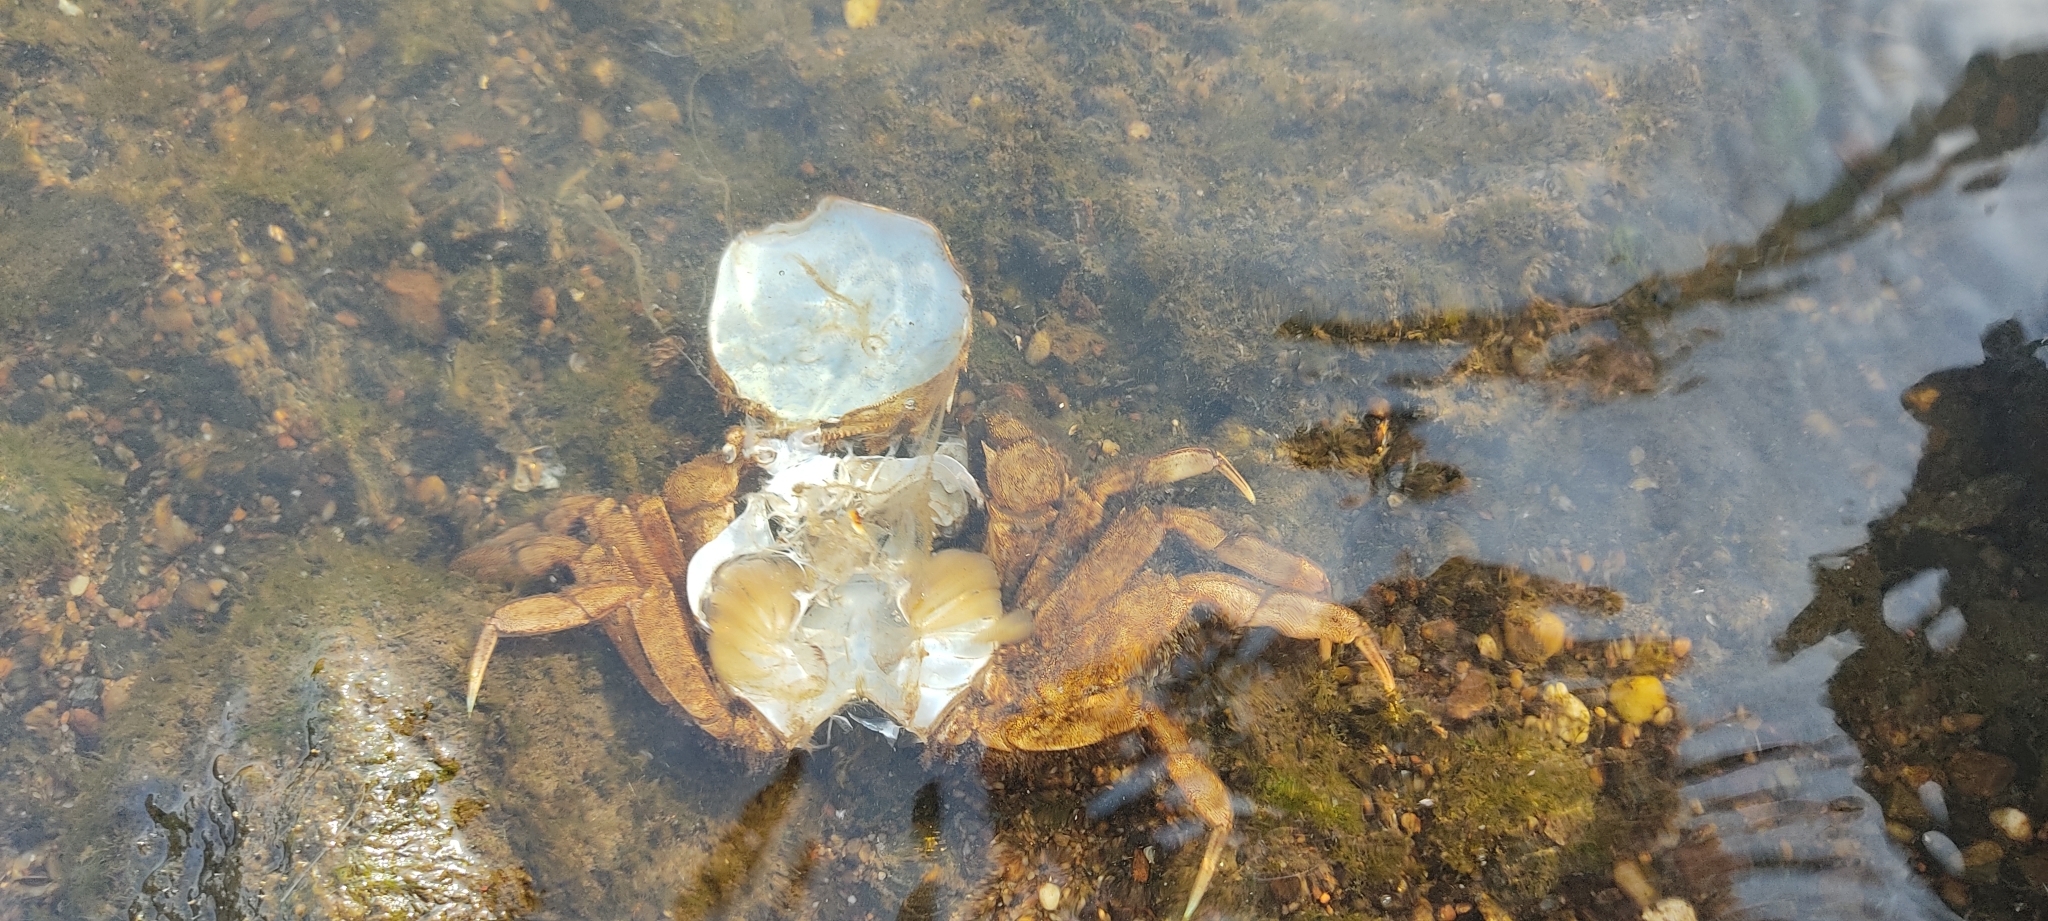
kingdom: Animalia
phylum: Arthropoda
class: Malacostraca
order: Decapoda
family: Varunidae
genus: Eriocheir
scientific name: Eriocheir sinensis
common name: Chinese mitten crab
